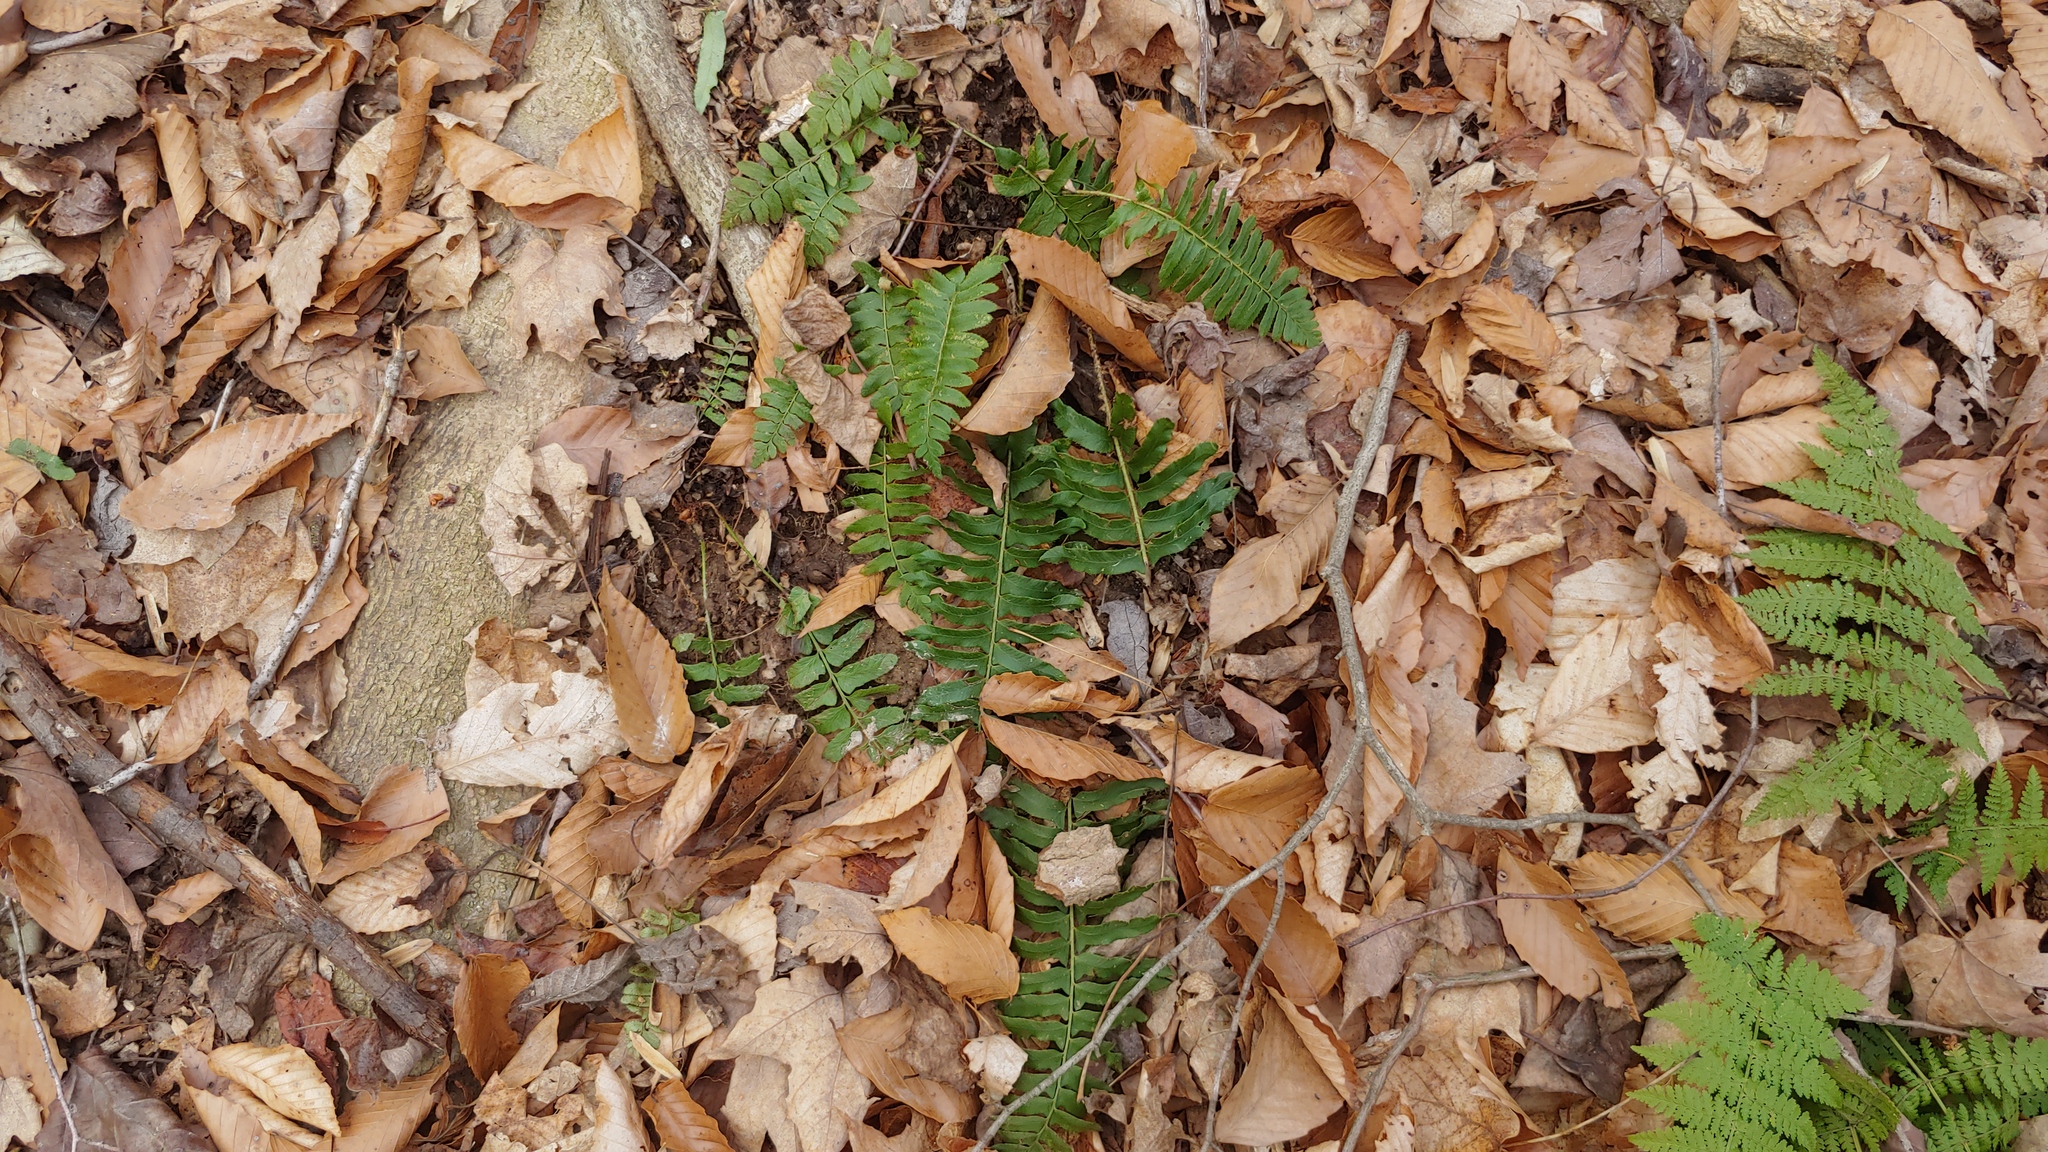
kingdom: Plantae
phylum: Tracheophyta
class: Polypodiopsida
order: Polypodiales
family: Dryopteridaceae
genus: Polystichum
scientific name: Polystichum acrostichoides
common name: Christmas fern
